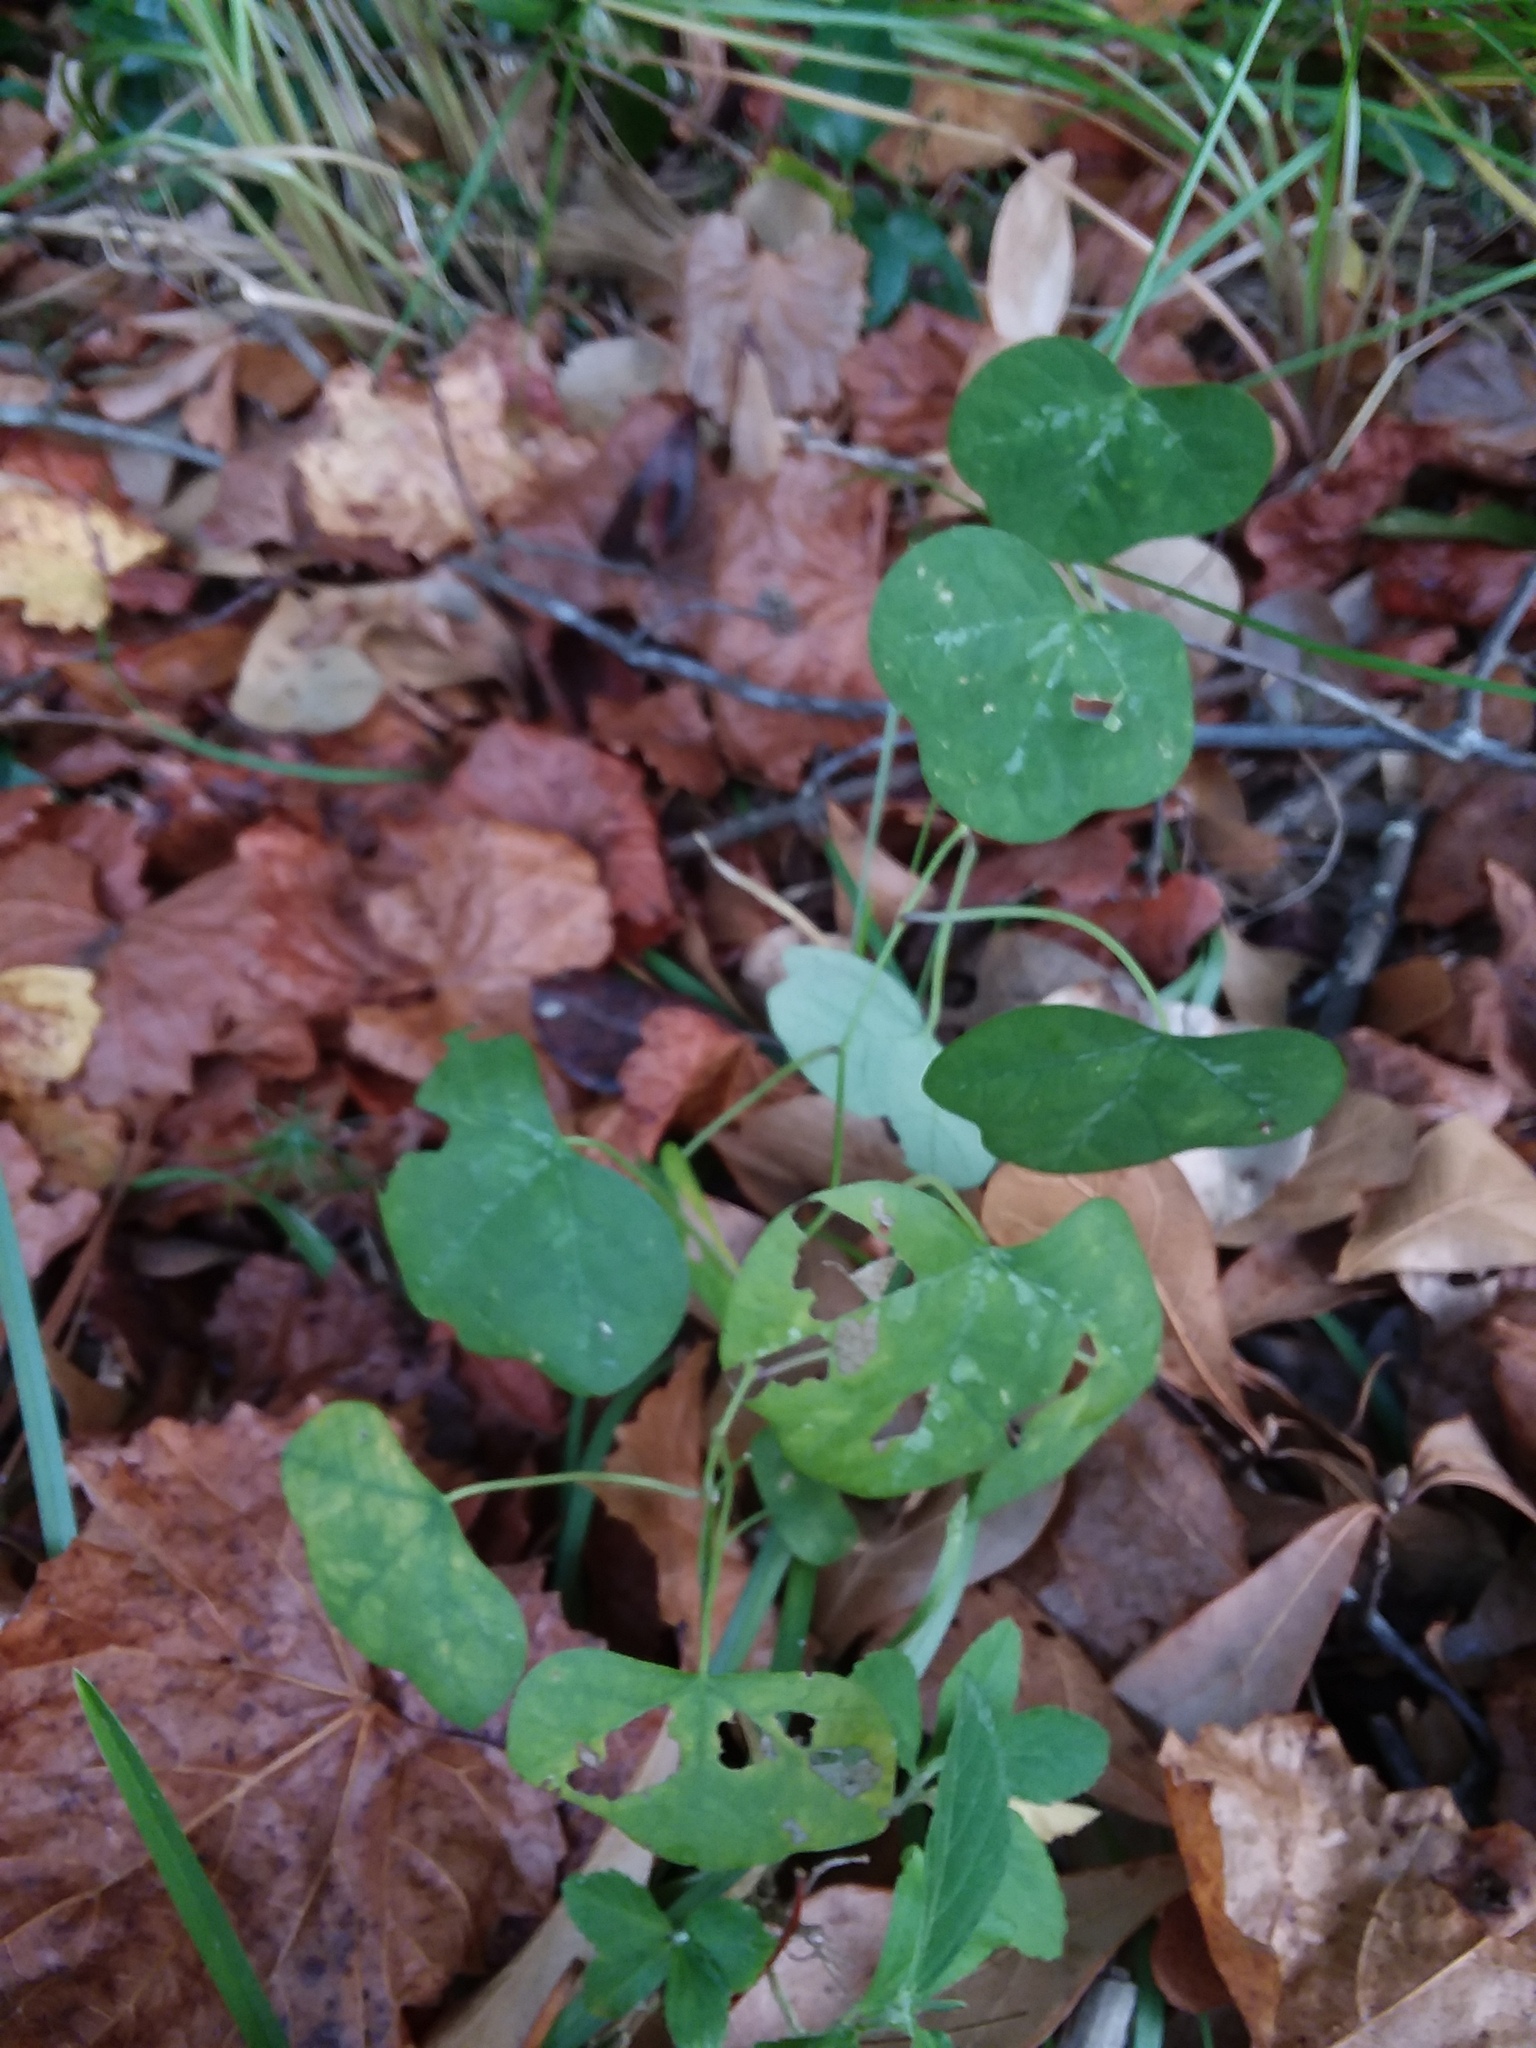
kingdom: Plantae
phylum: Tracheophyta
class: Magnoliopsida
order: Malpighiales
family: Passifloraceae
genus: Passiflora
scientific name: Passiflora lutea
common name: Yellow passionflower
